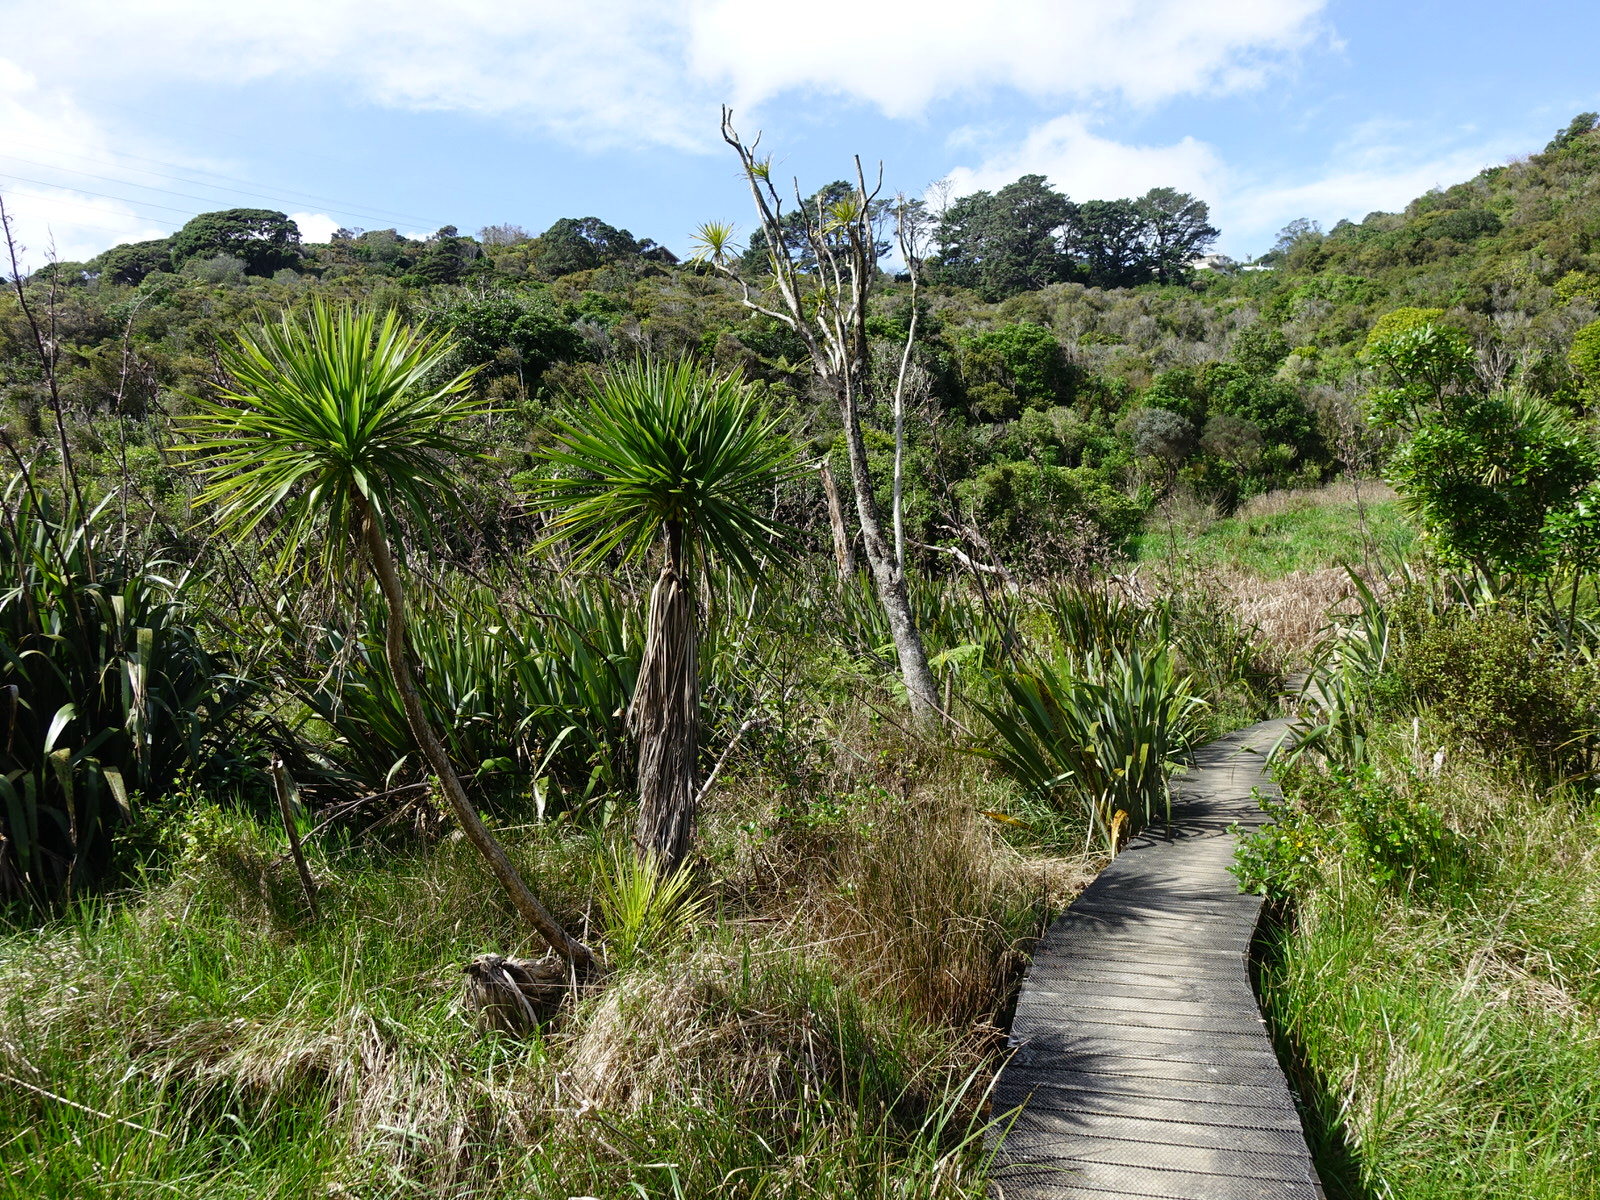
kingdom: Plantae
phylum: Tracheophyta
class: Liliopsida
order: Asparagales
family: Asparagaceae
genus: Cordyline
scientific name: Cordyline australis
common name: Cabbage-palm
